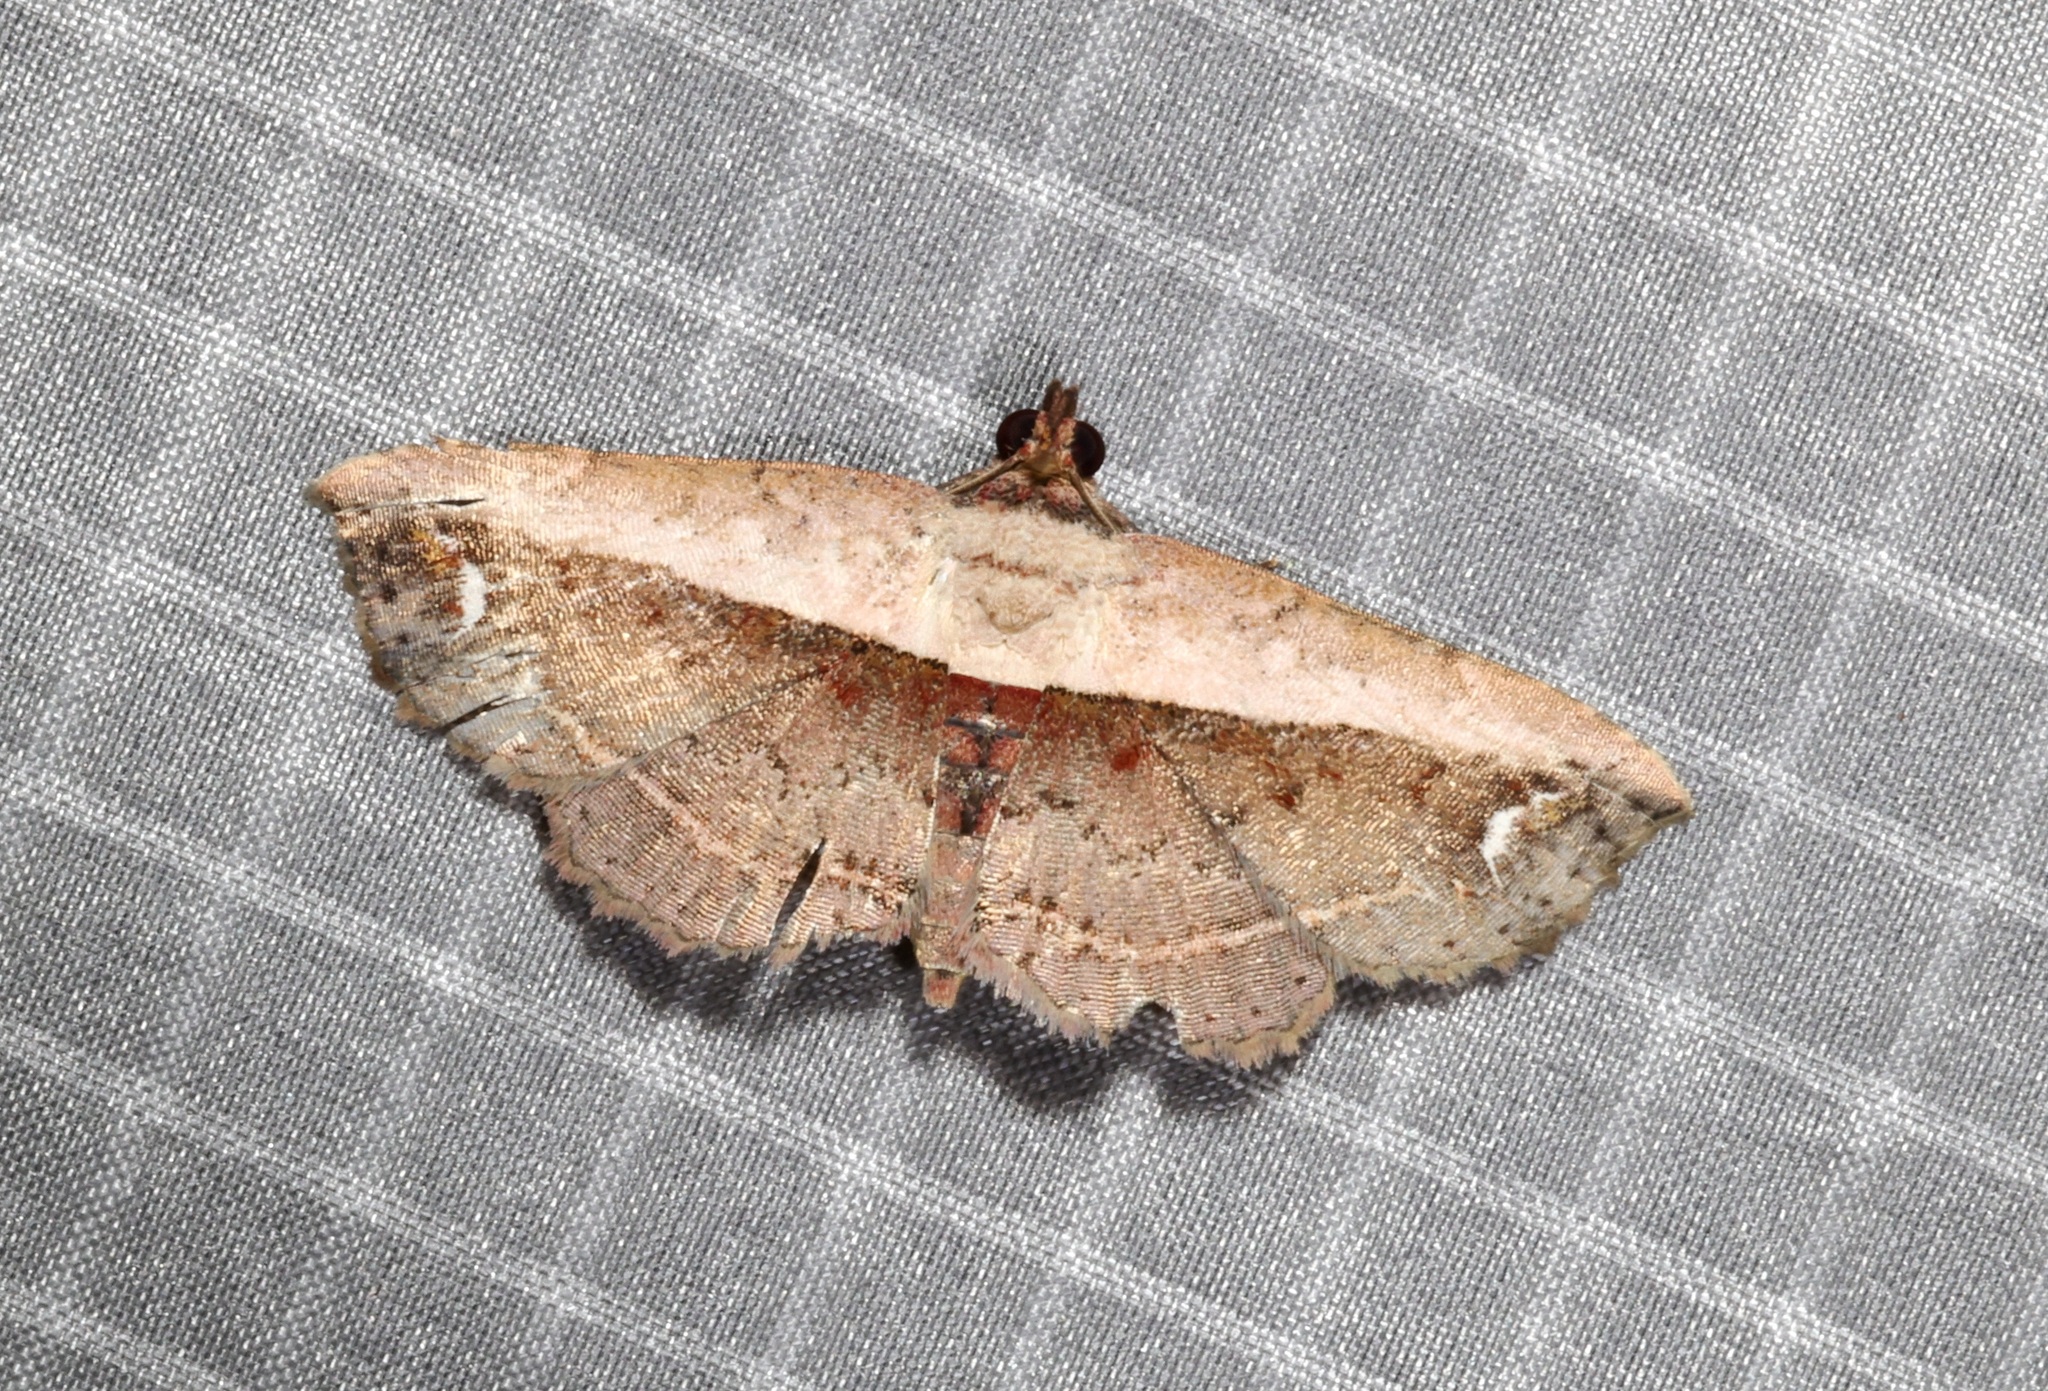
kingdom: Animalia
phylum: Arthropoda
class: Insecta
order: Lepidoptera
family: Noctuidae
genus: Eugnathia
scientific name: Eugnathia lunifera
